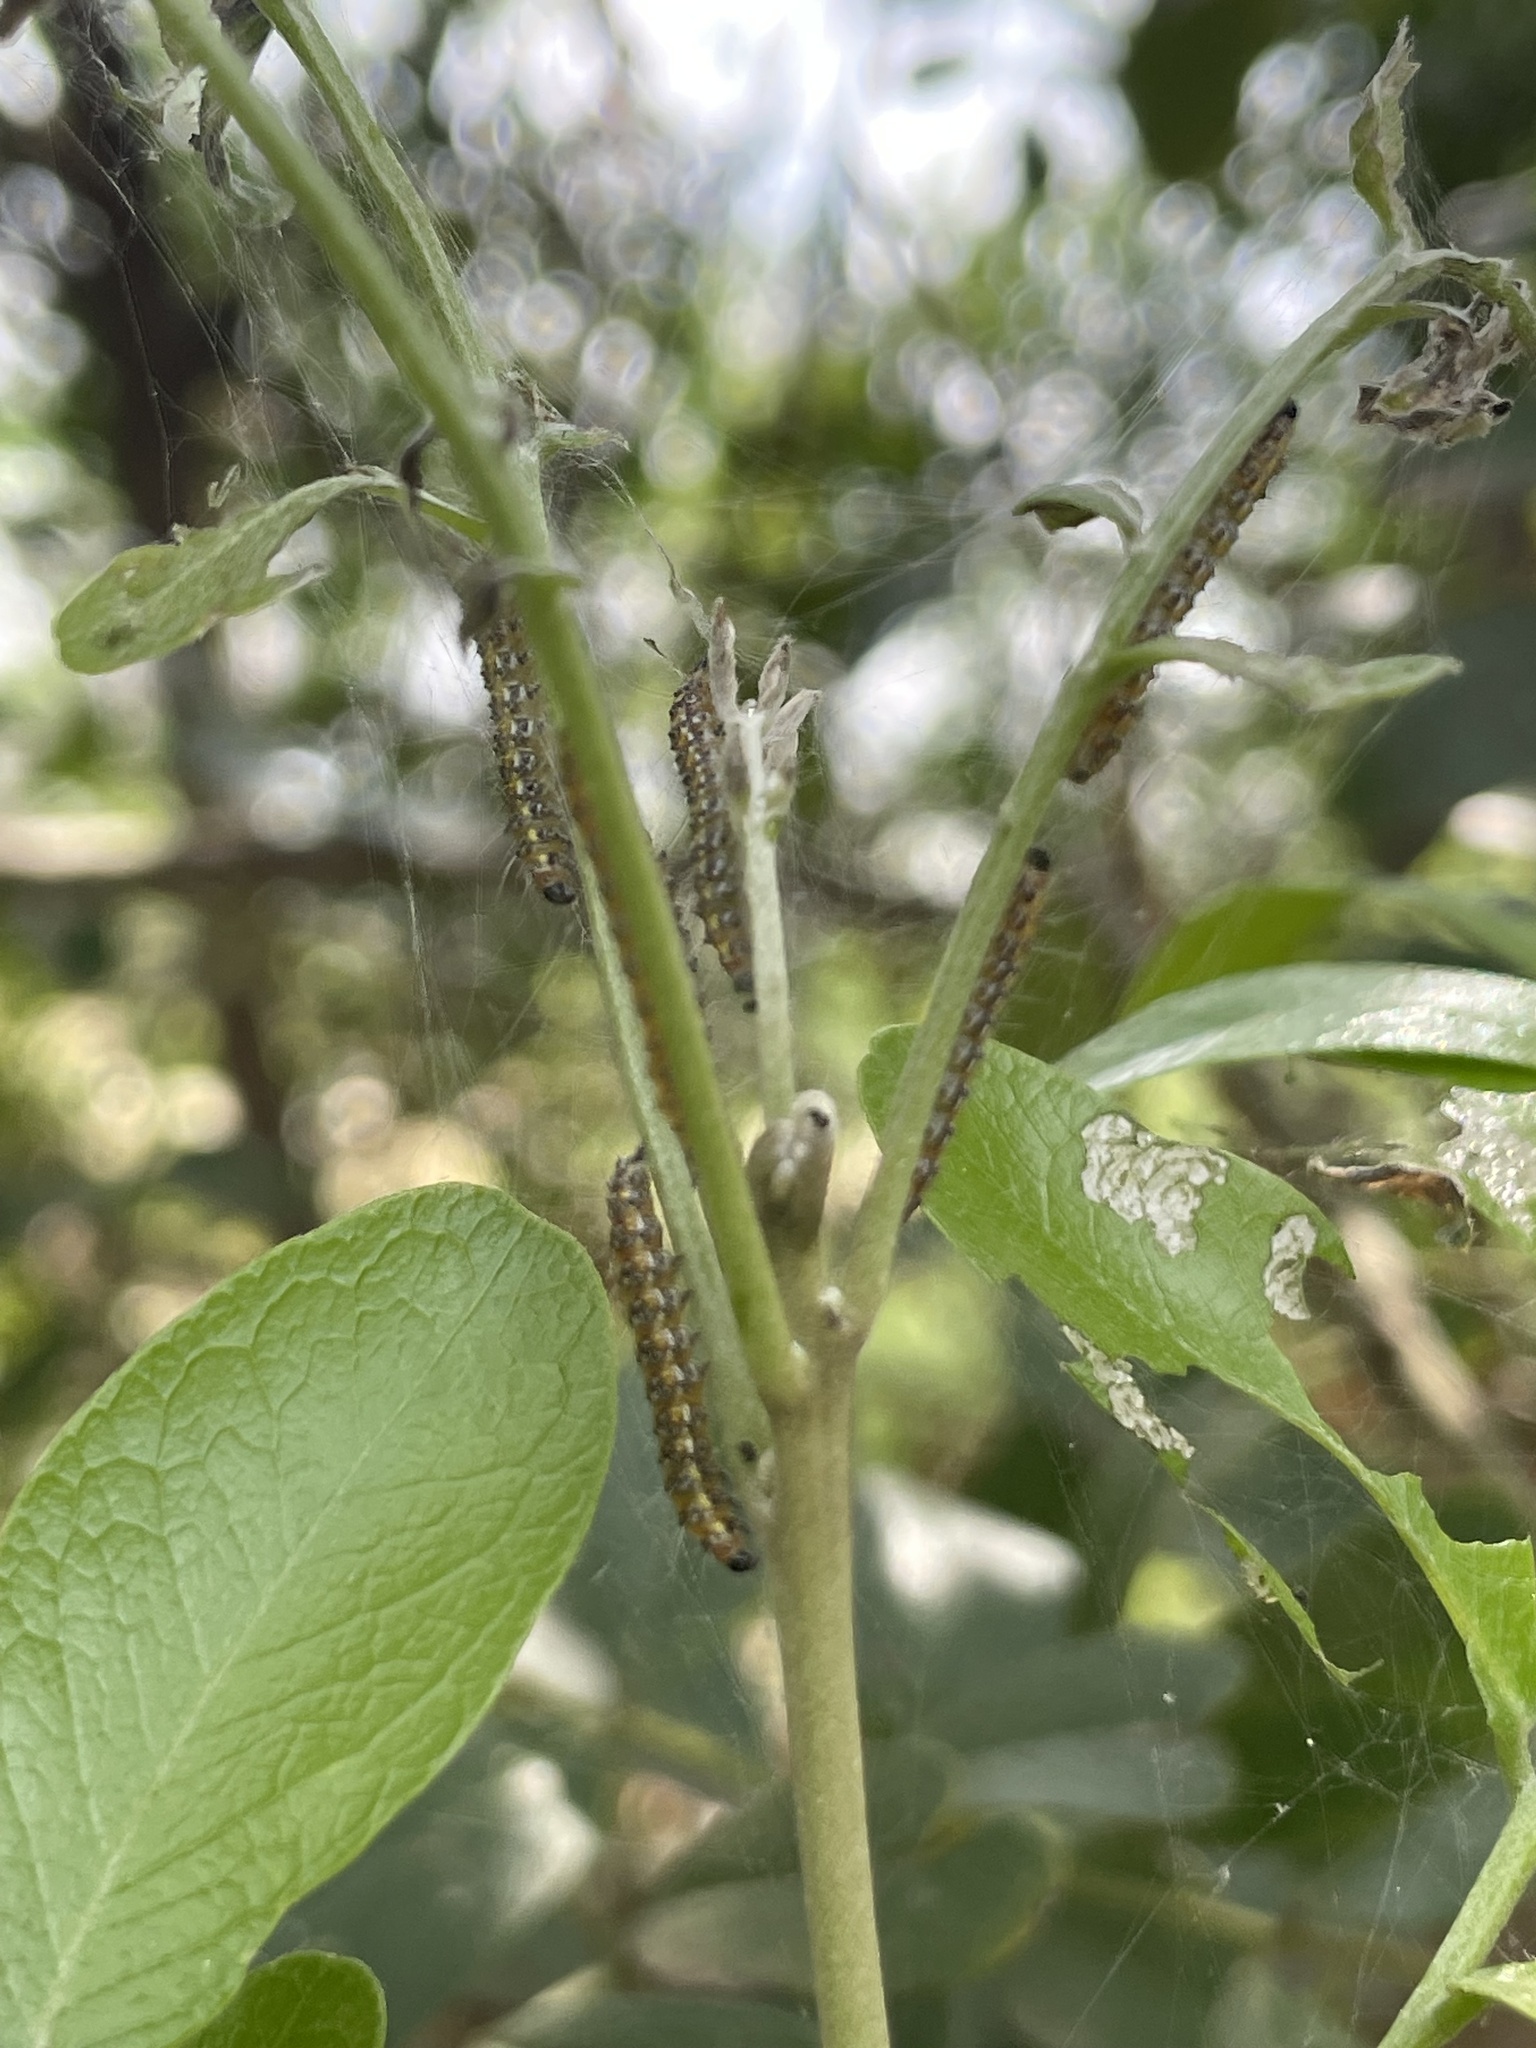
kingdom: Animalia
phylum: Arthropoda
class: Insecta
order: Lepidoptera
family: Crambidae
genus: Uresiphita
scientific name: Uresiphita reversalis
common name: Genista broom moth
